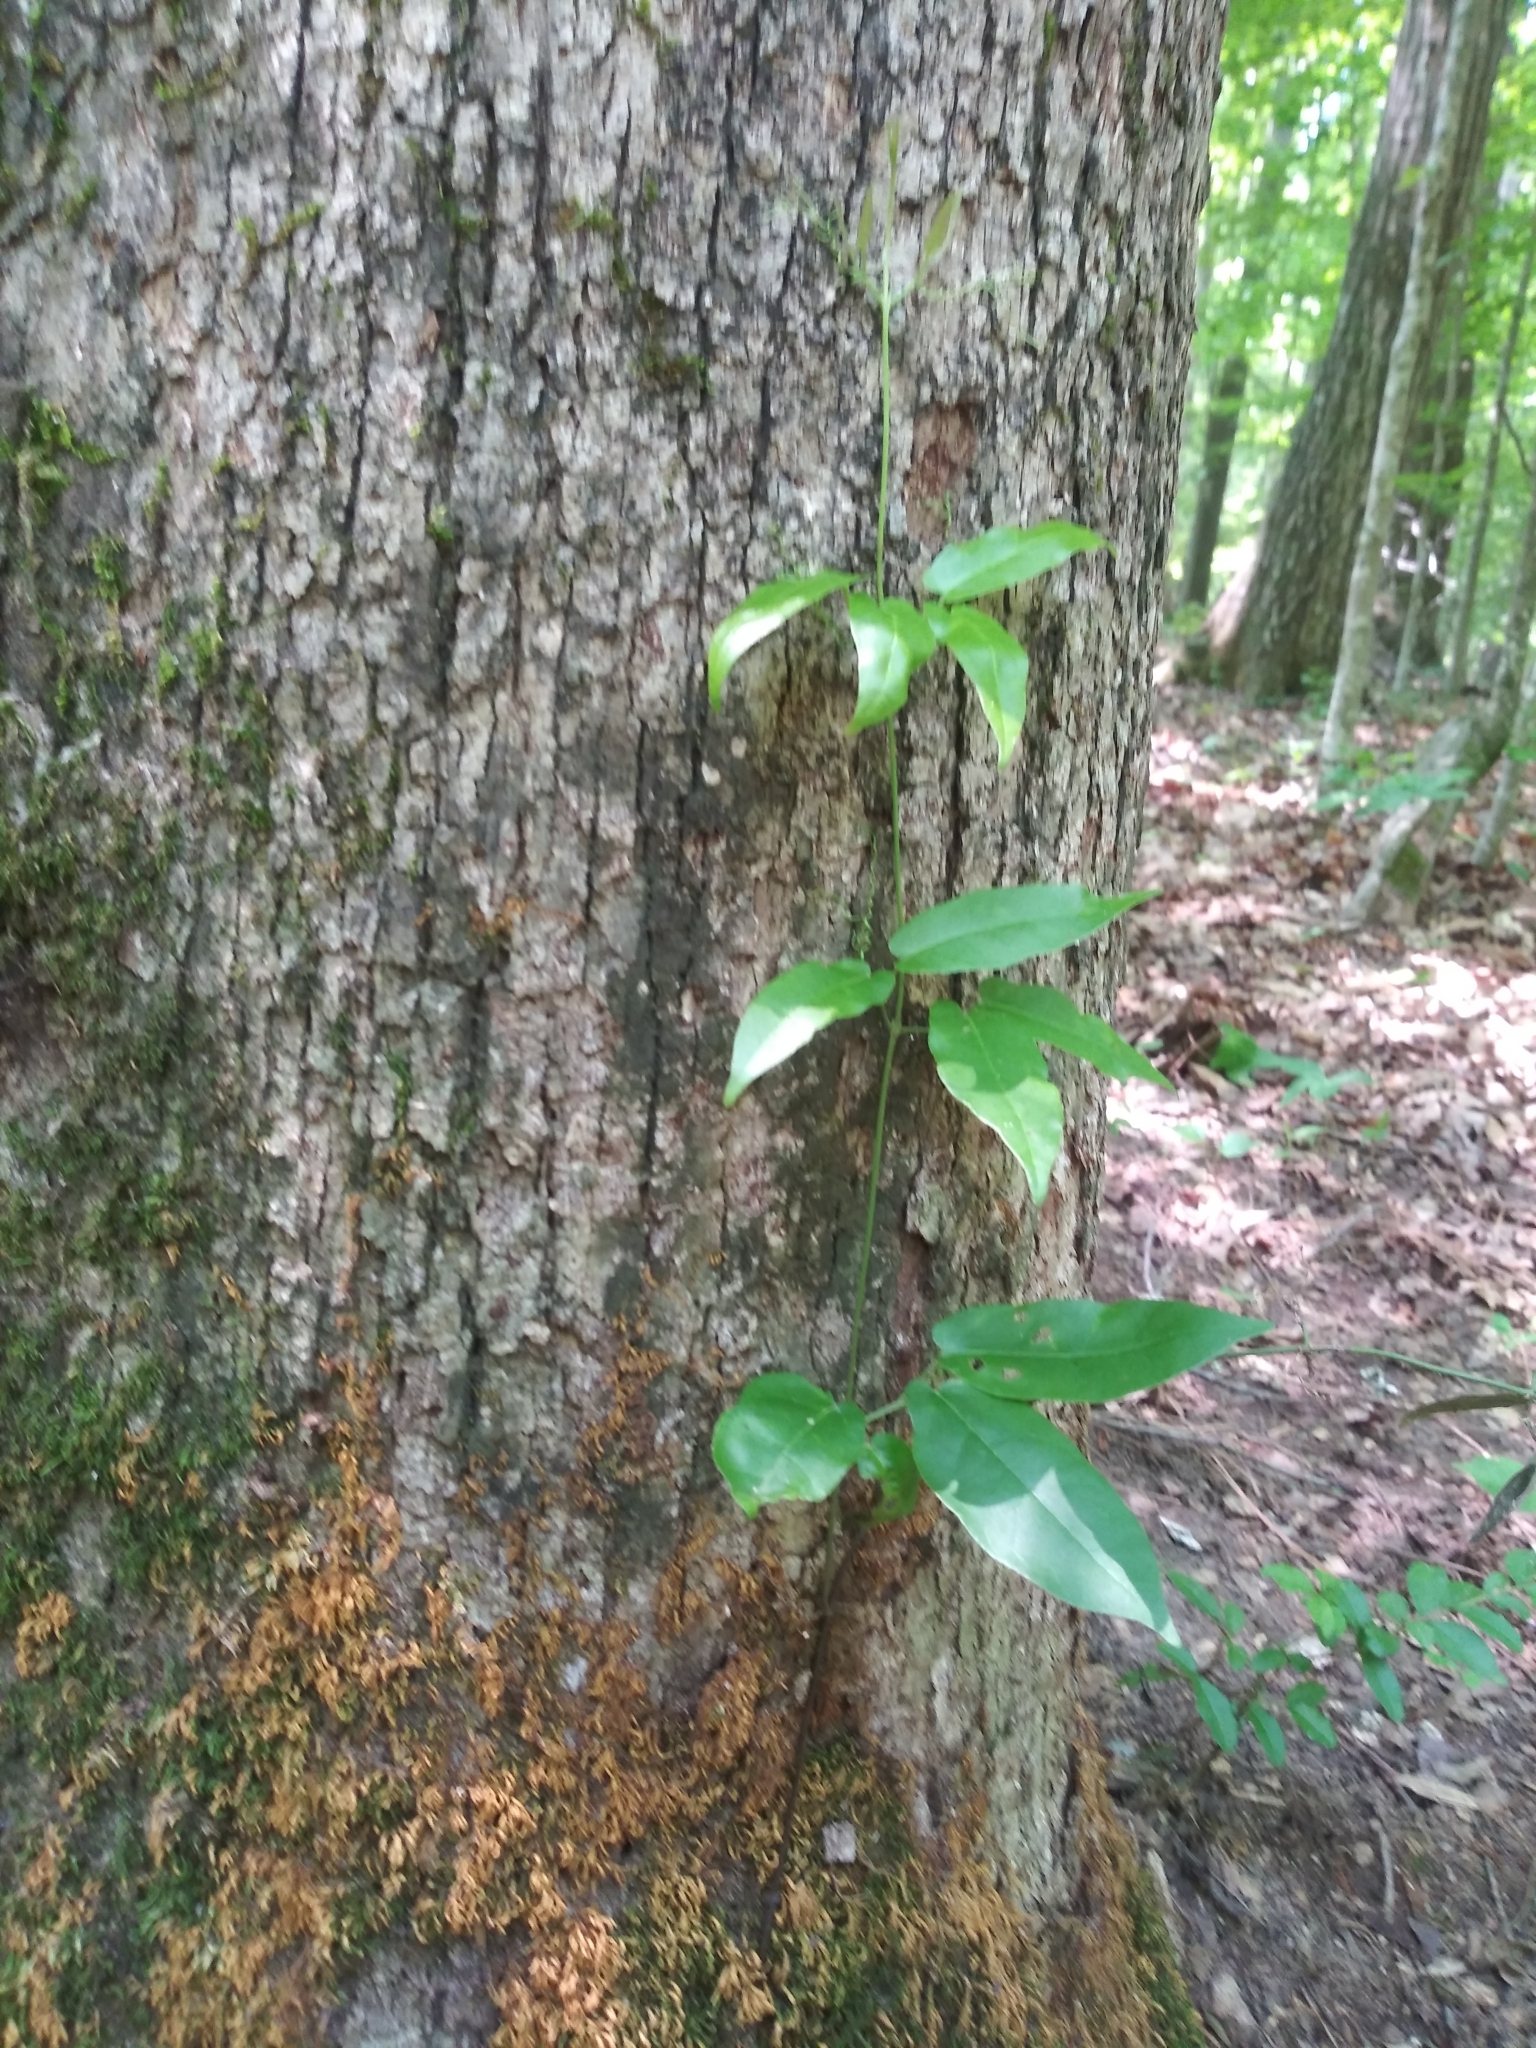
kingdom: Plantae
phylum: Tracheophyta
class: Magnoliopsida
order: Lamiales
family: Bignoniaceae
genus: Bignonia
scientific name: Bignonia capreolata
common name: Crossvine
